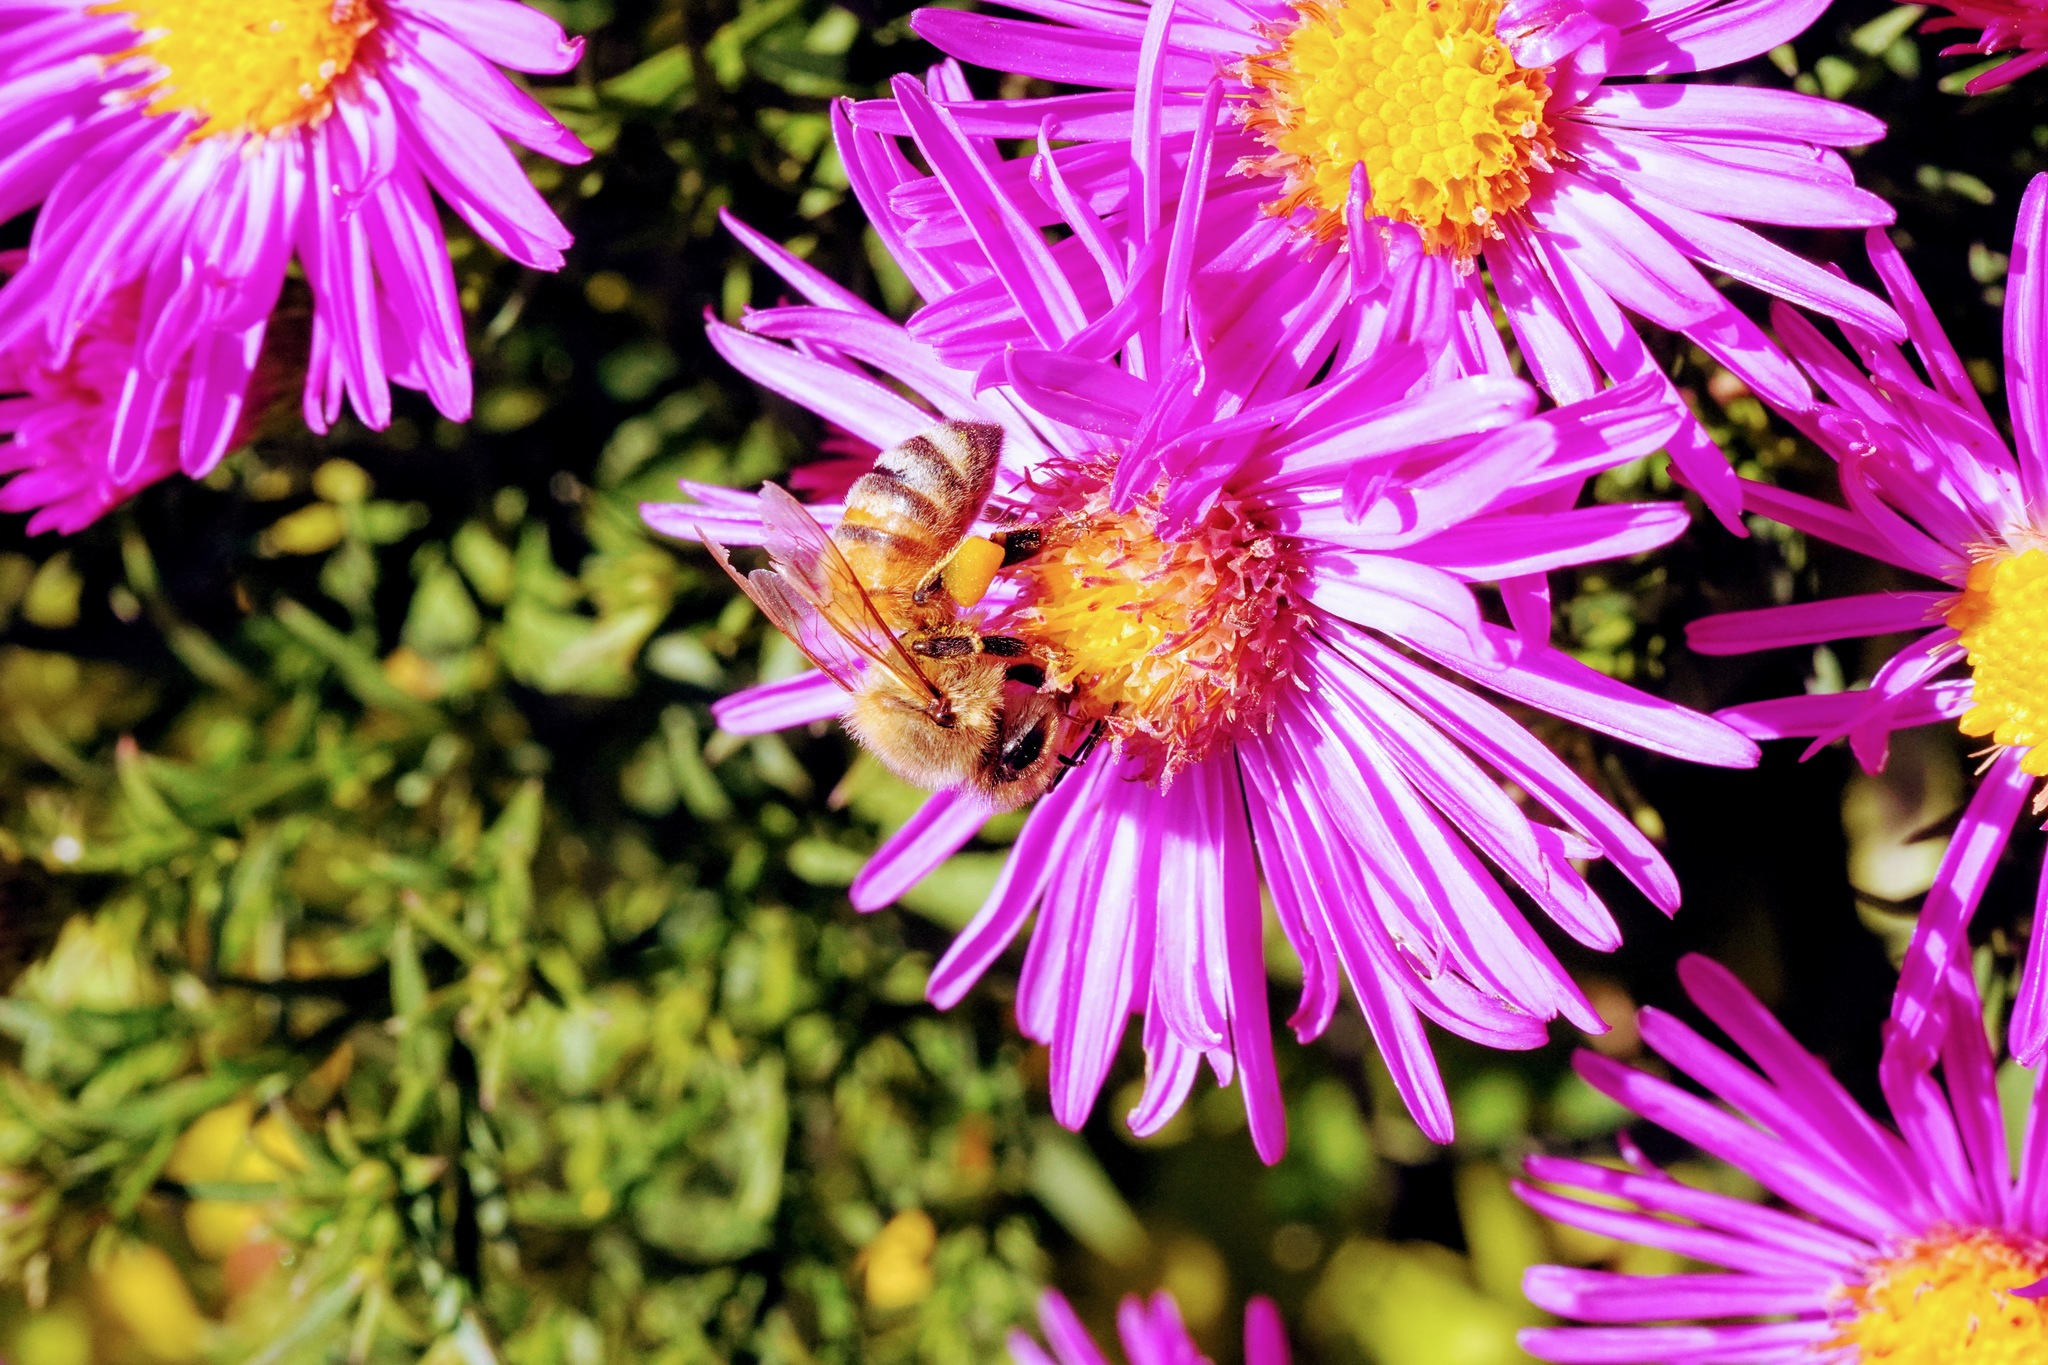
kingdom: Animalia
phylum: Arthropoda
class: Insecta
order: Hymenoptera
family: Apidae
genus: Apis
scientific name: Apis mellifera
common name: Honey bee
